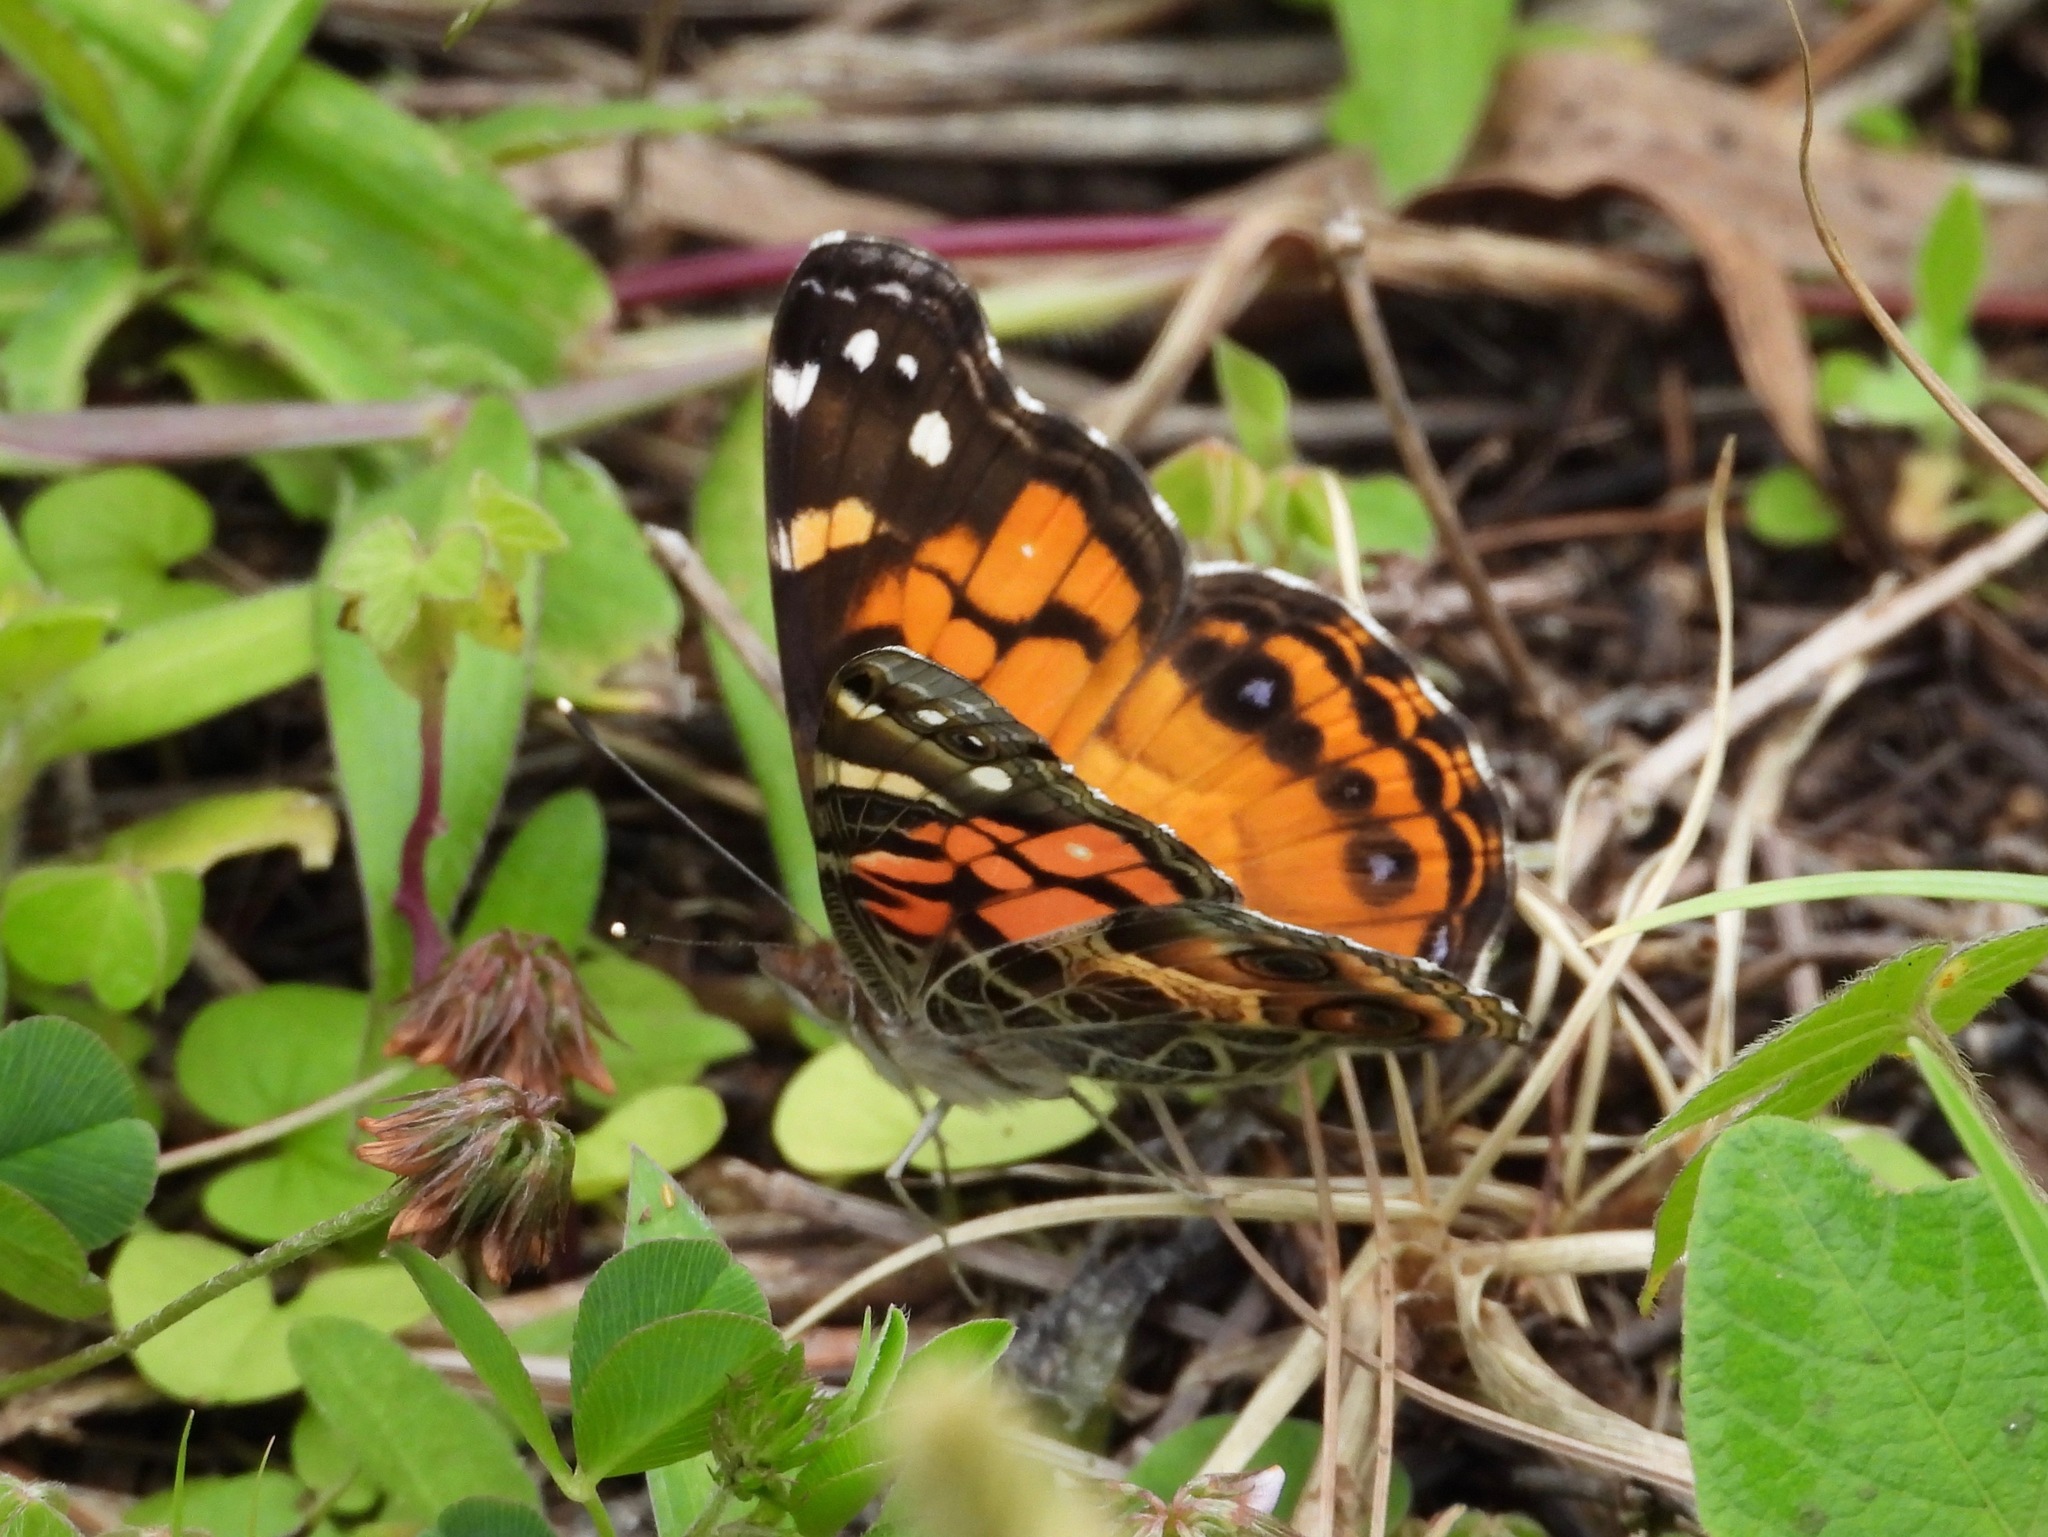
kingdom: Animalia
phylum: Arthropoda
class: Insecta
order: Lepidoptera
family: Nymphalidae
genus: Vanessa
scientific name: Vanessa virginiensis
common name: American lady
